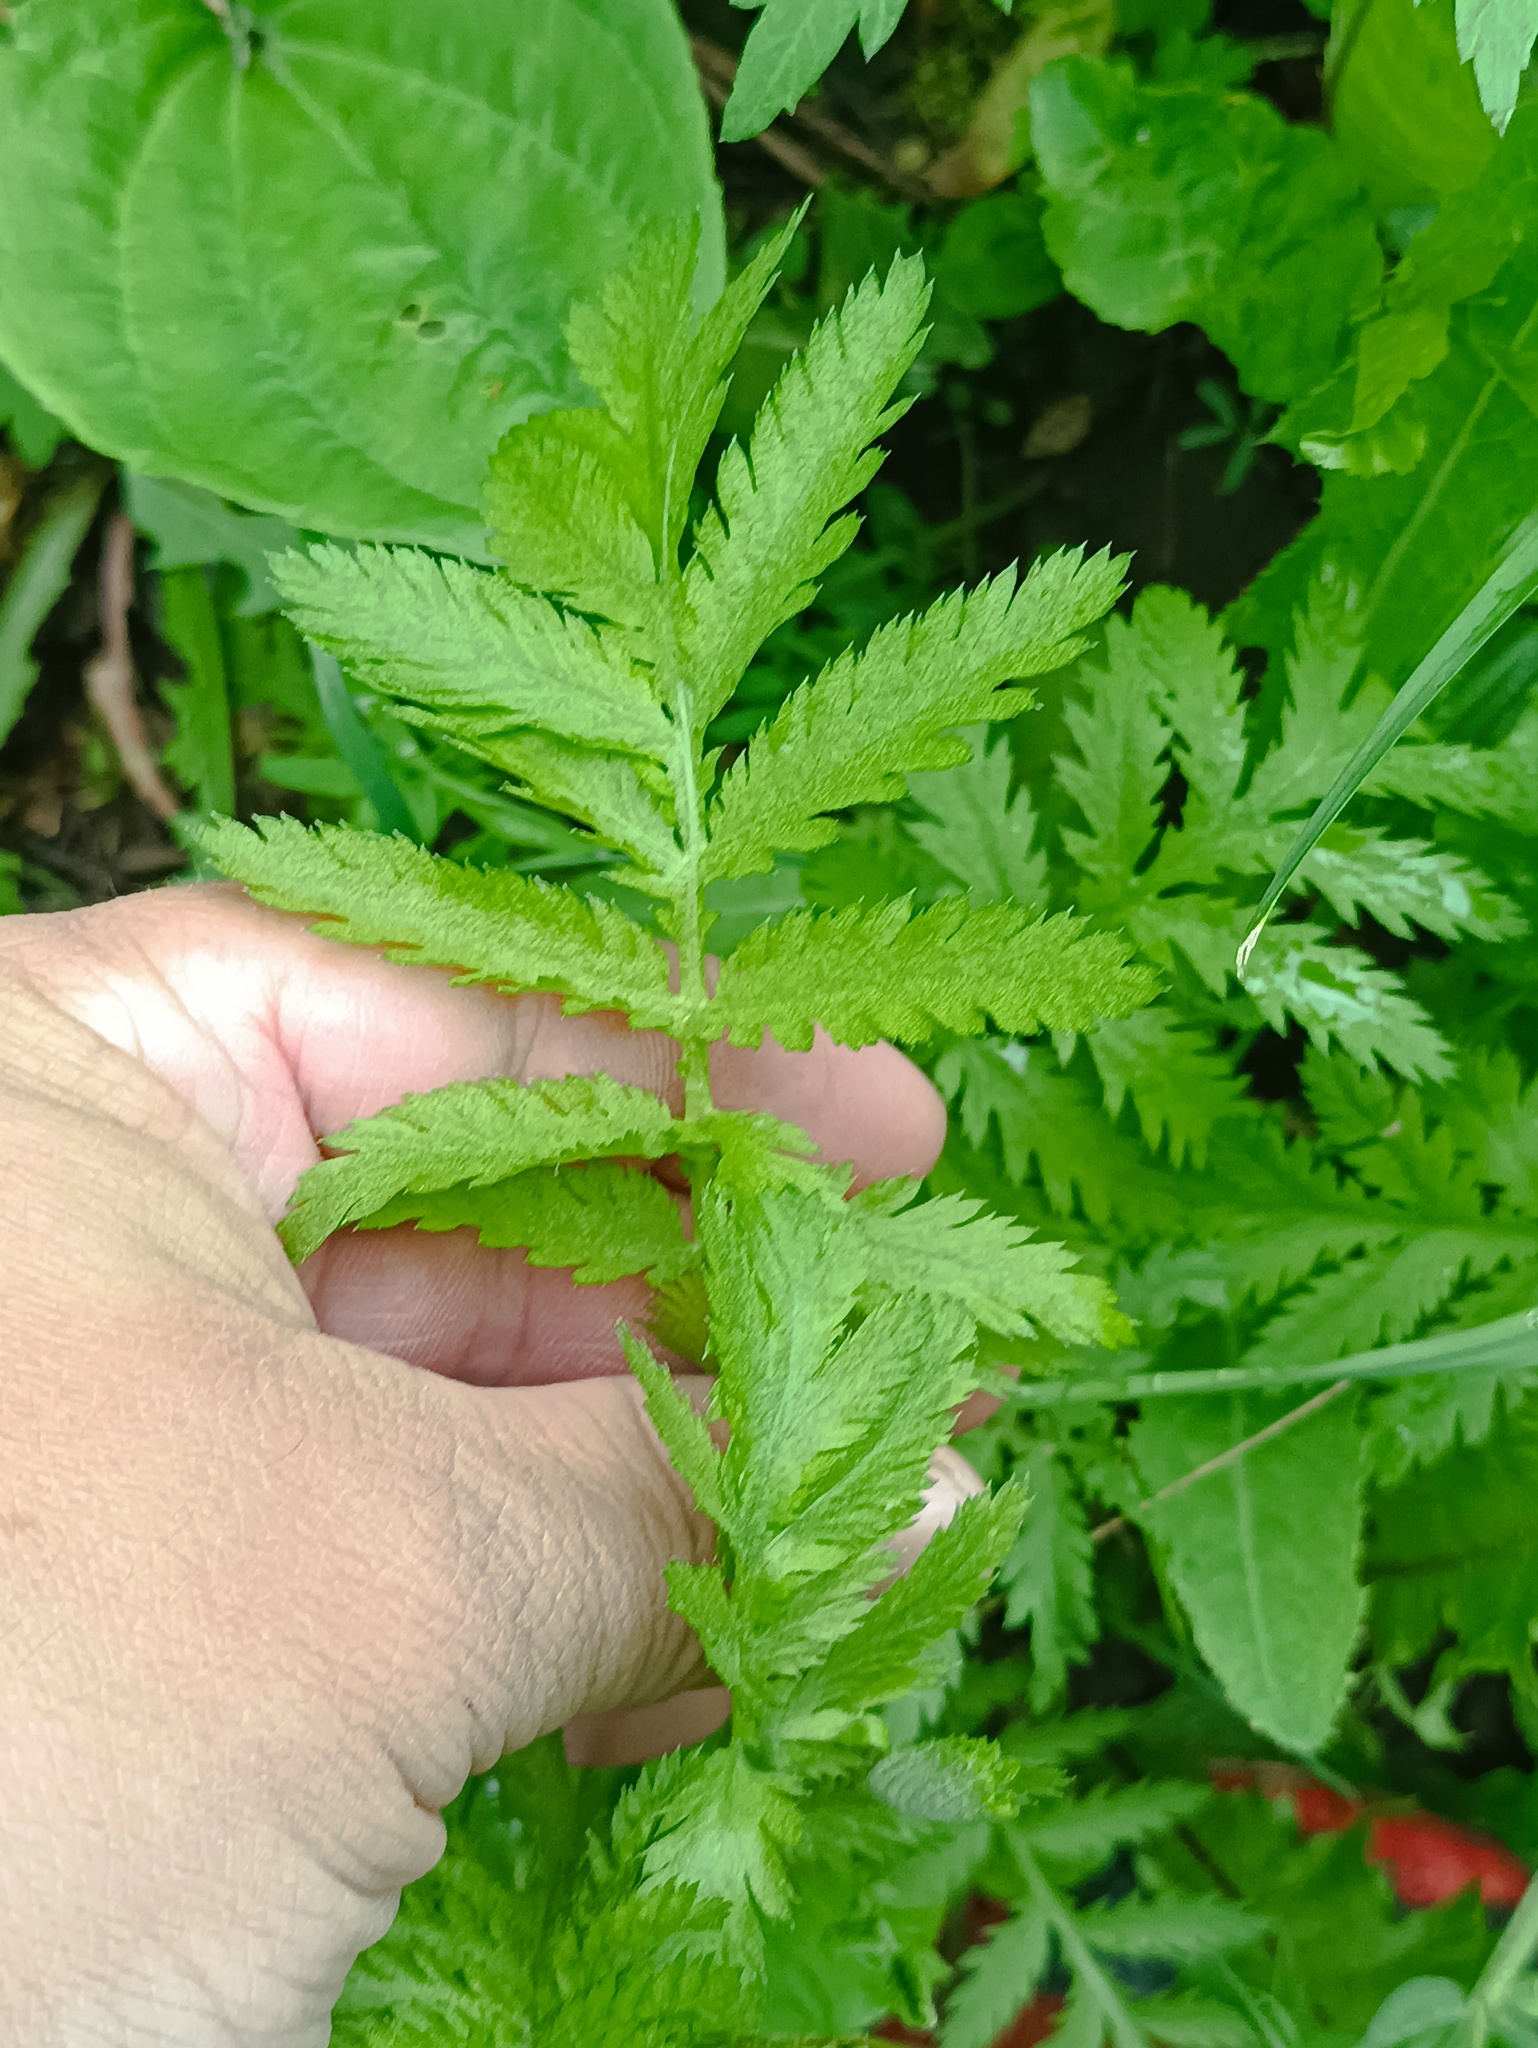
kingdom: Plantae
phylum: Tracheophyta
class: Magnoliopsida
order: Asterales
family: Asteraceae
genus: Tanacetum
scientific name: Tanacetum vulgare
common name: Common tansy
